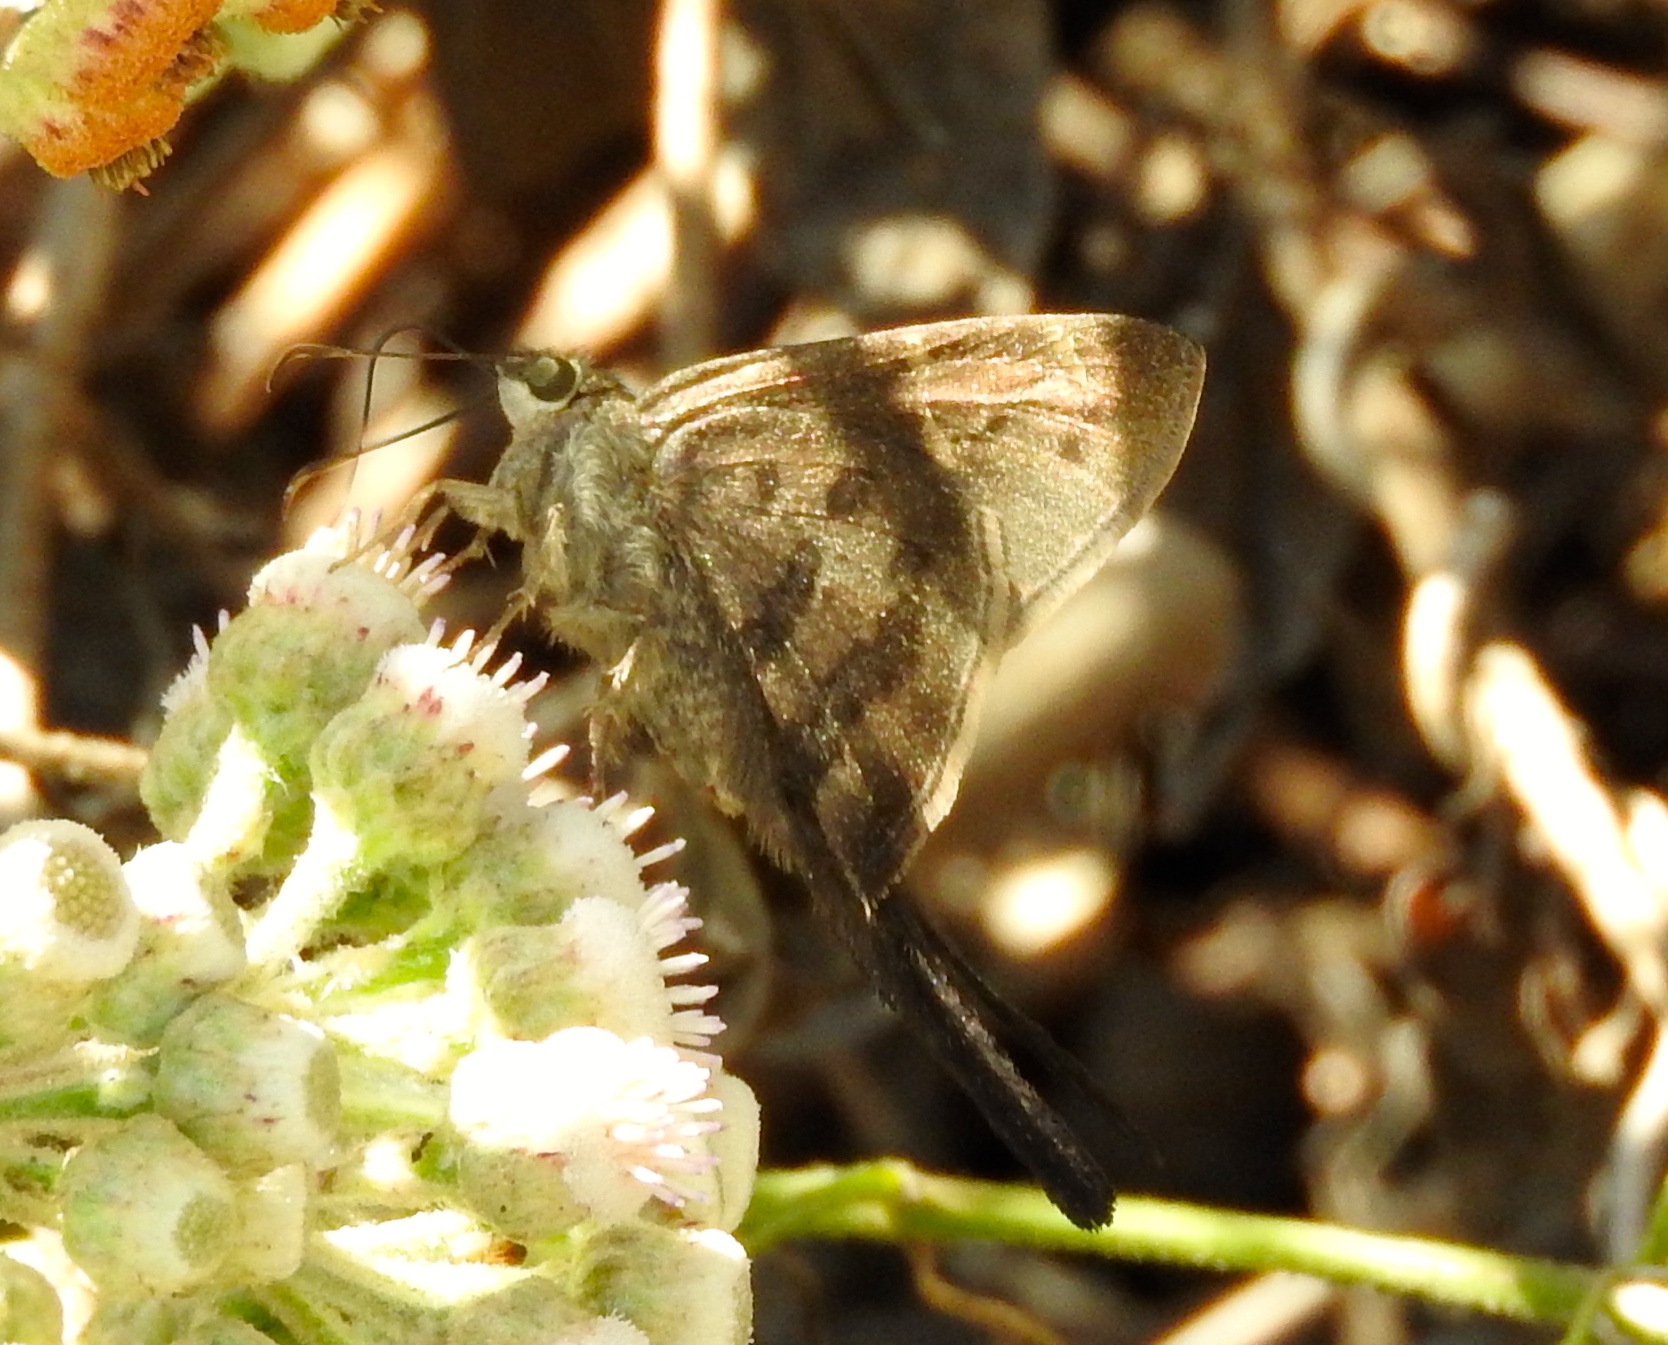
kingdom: Animalia
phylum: Arthropoda
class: Insecta
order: Lepidoptera
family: Hesperiidae
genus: Urbanus
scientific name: Urbanus procne
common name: Brown longtail
